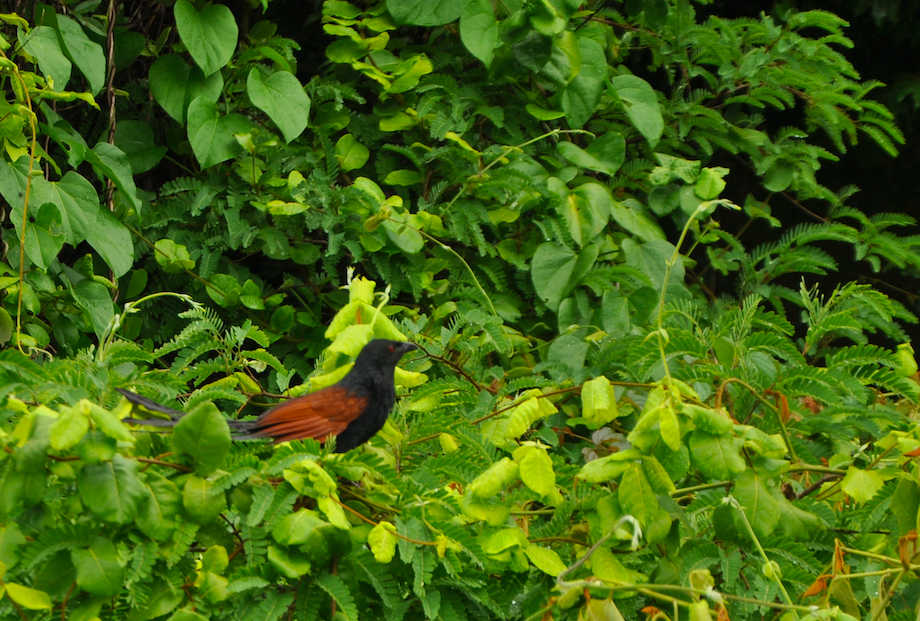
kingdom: Animalia
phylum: Chordata
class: Aves
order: Cuculiformes
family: Cuculidae
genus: Centropus
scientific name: Centropus toulou
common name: Malagasy coucal
